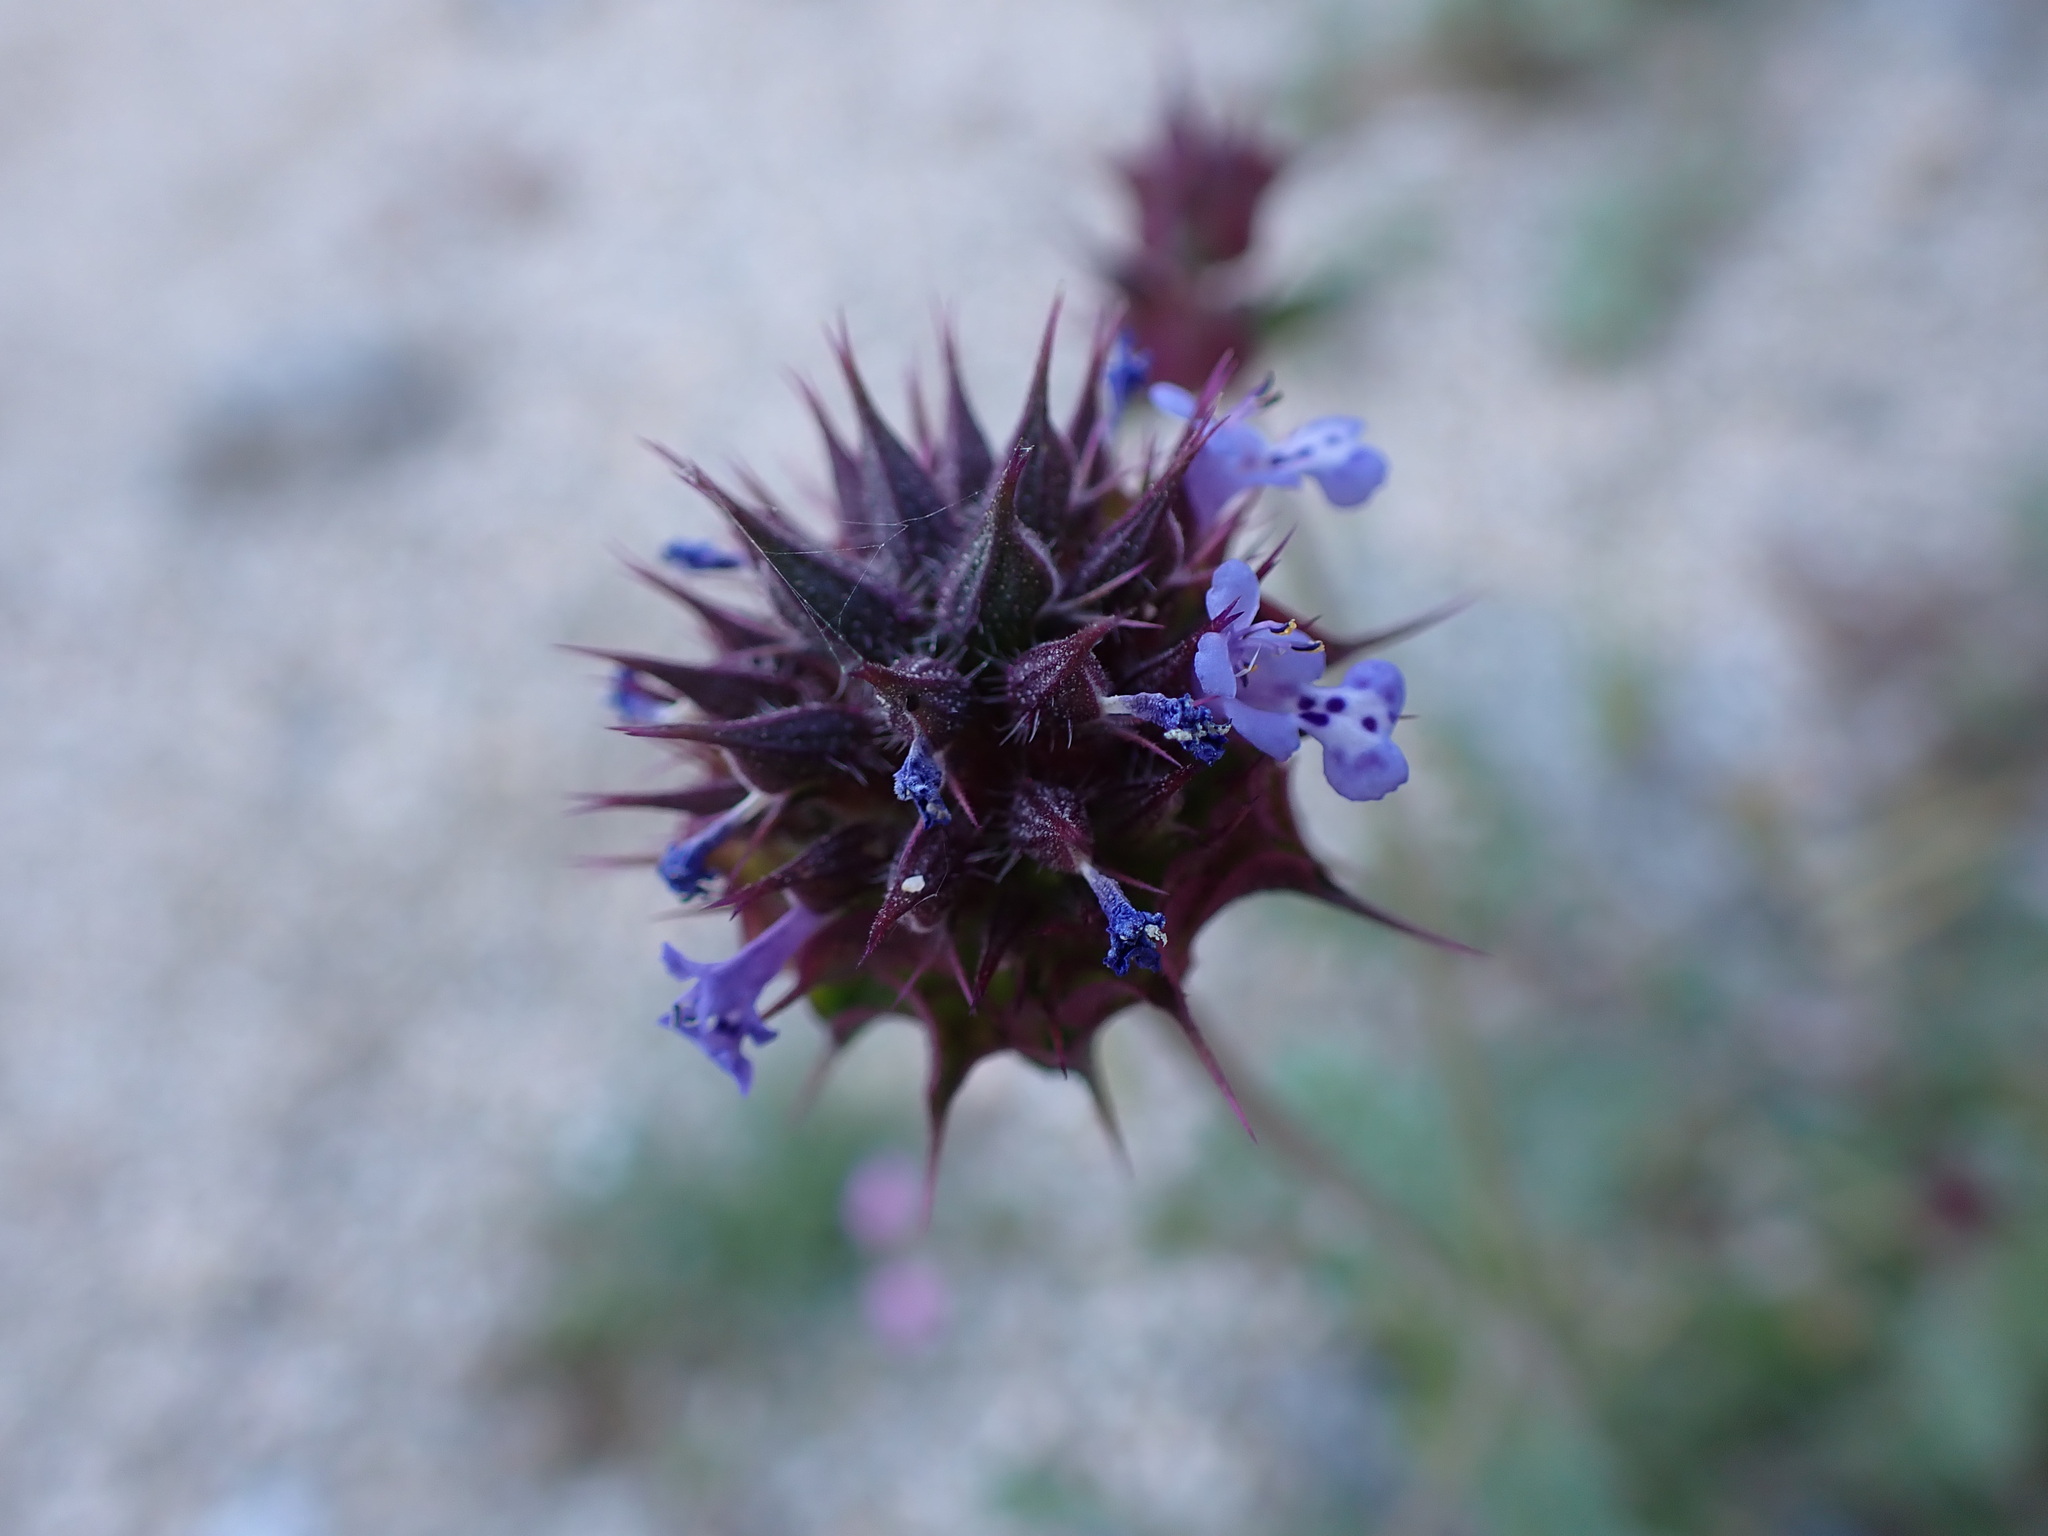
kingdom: Plantae
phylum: Tracheophyta
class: Magnoliopsida
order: Lamiales
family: Lamiaceae
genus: Salvia
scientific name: Salvia columbariae
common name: Chia
